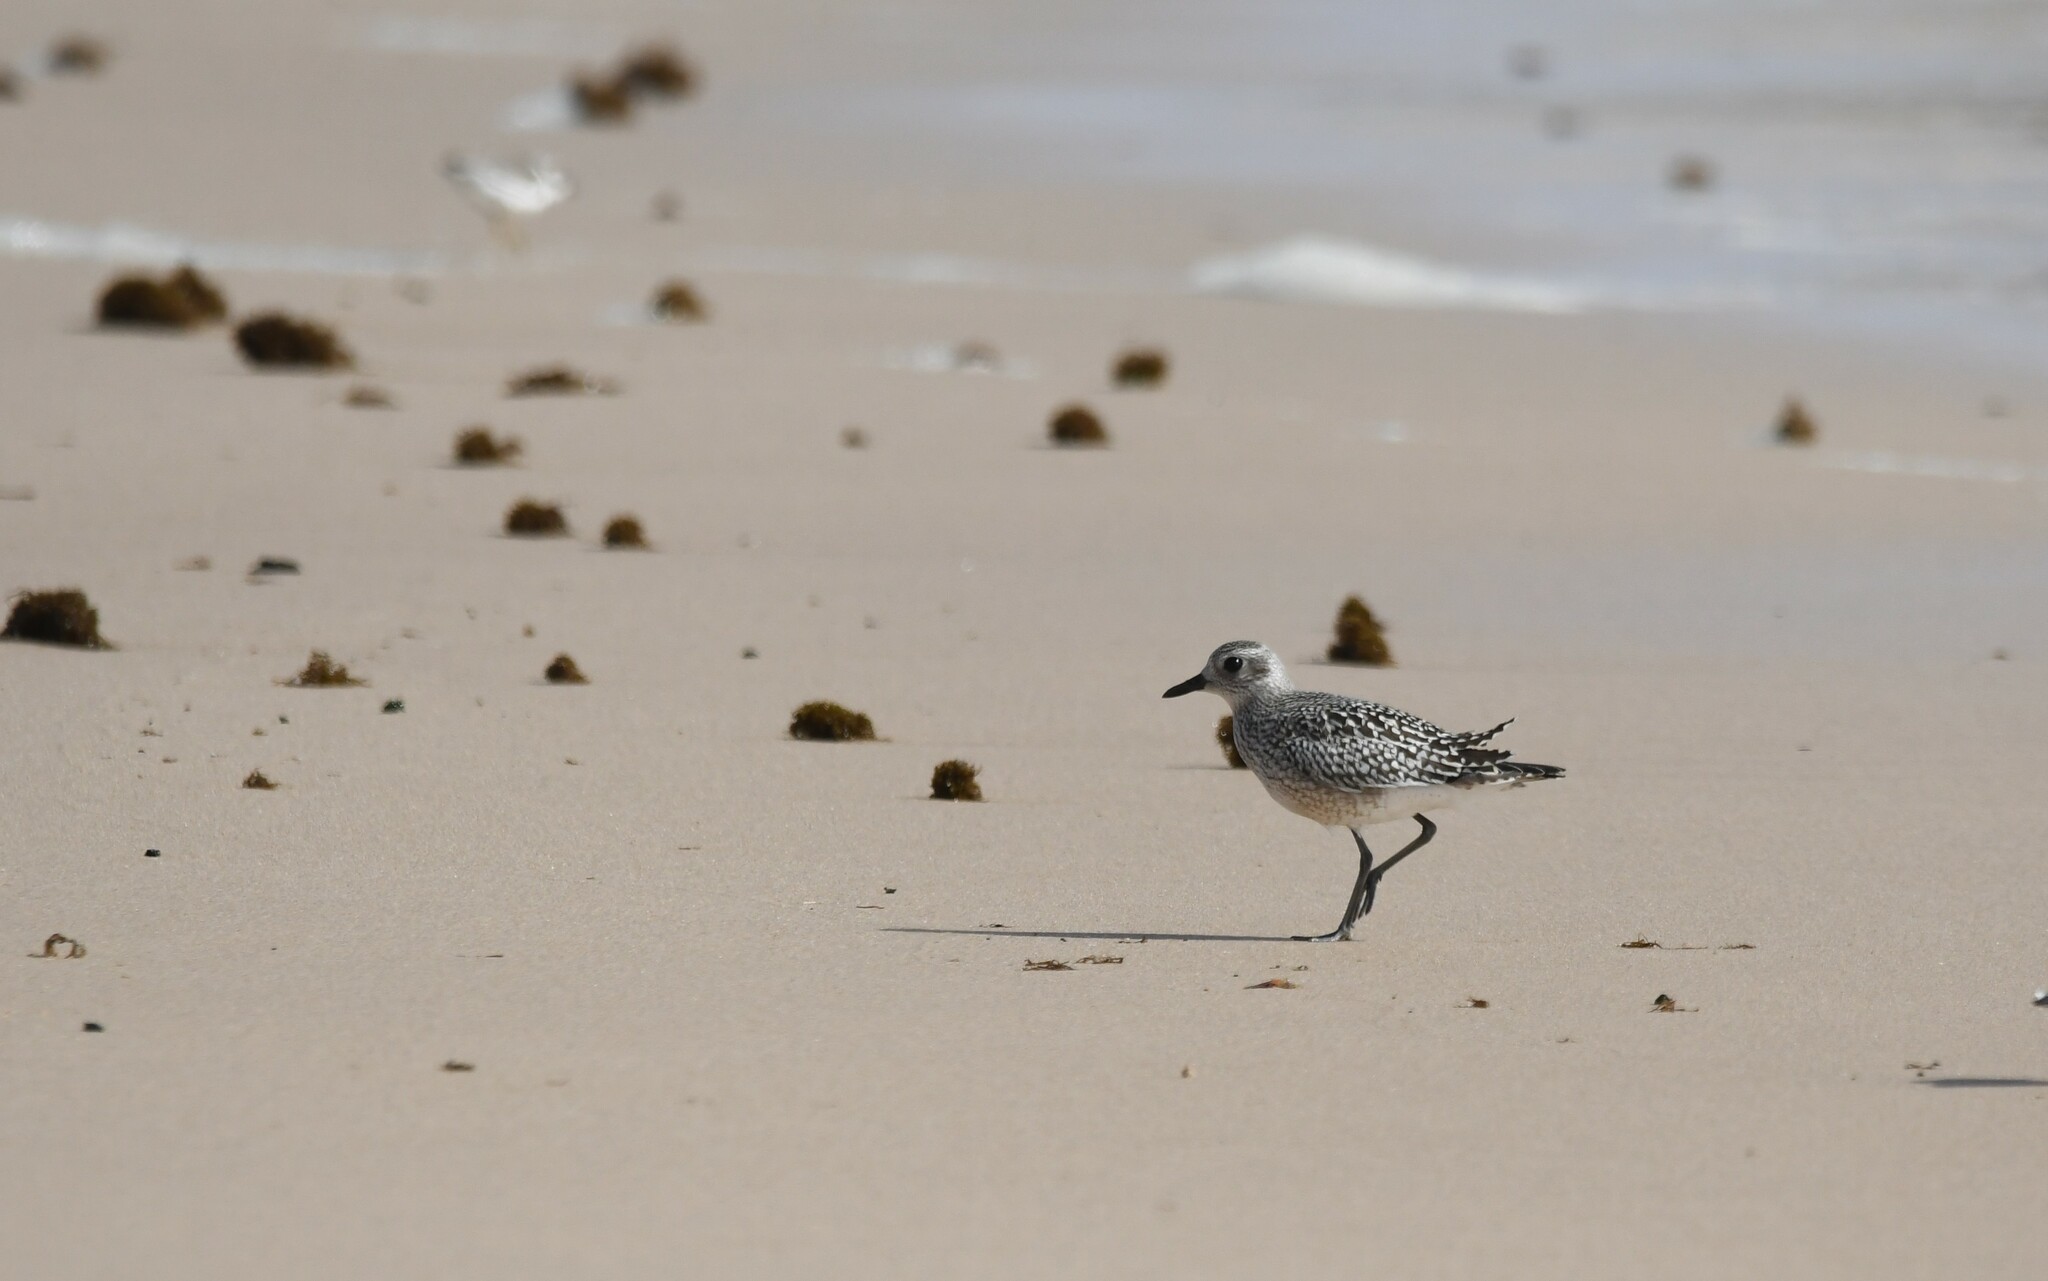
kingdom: Animalia
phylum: Chordata
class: Aves
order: Charadriiformes
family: Charadriidae
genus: Pluvialis
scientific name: Pluvialis squatarola
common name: Grey plover
